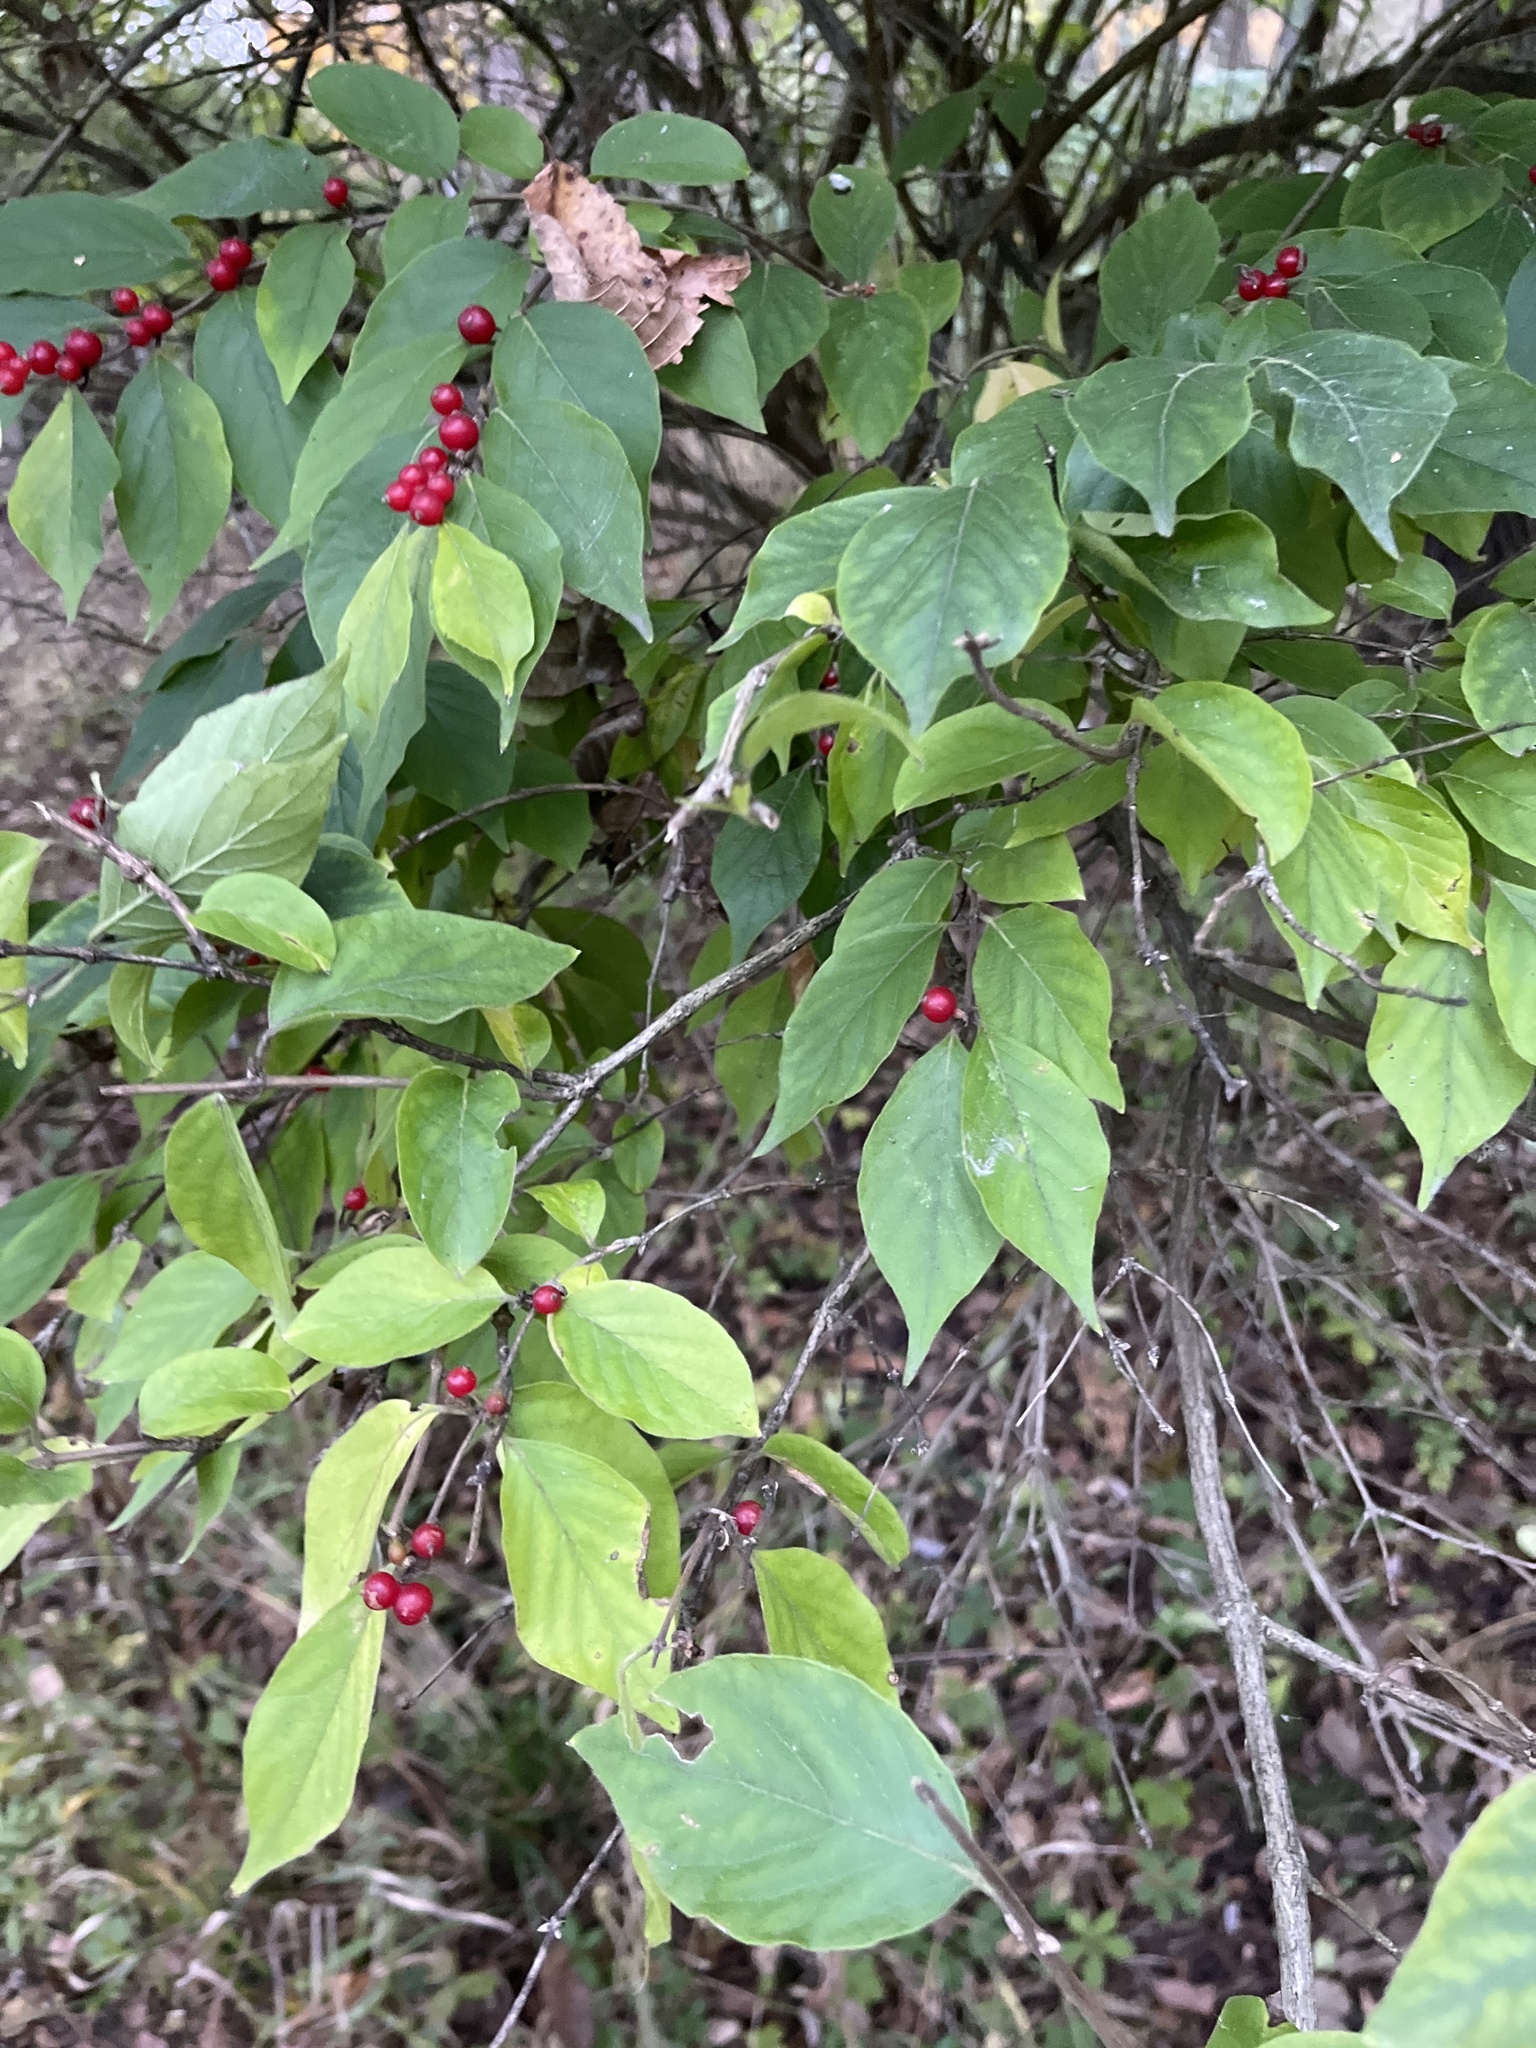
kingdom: Plantae
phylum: Tracheophyta
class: Magnoliopsida
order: Dipsacales
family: Caprifoliaceae
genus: Lonicera
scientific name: Lonicera maackii
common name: Amur honeysuckle
